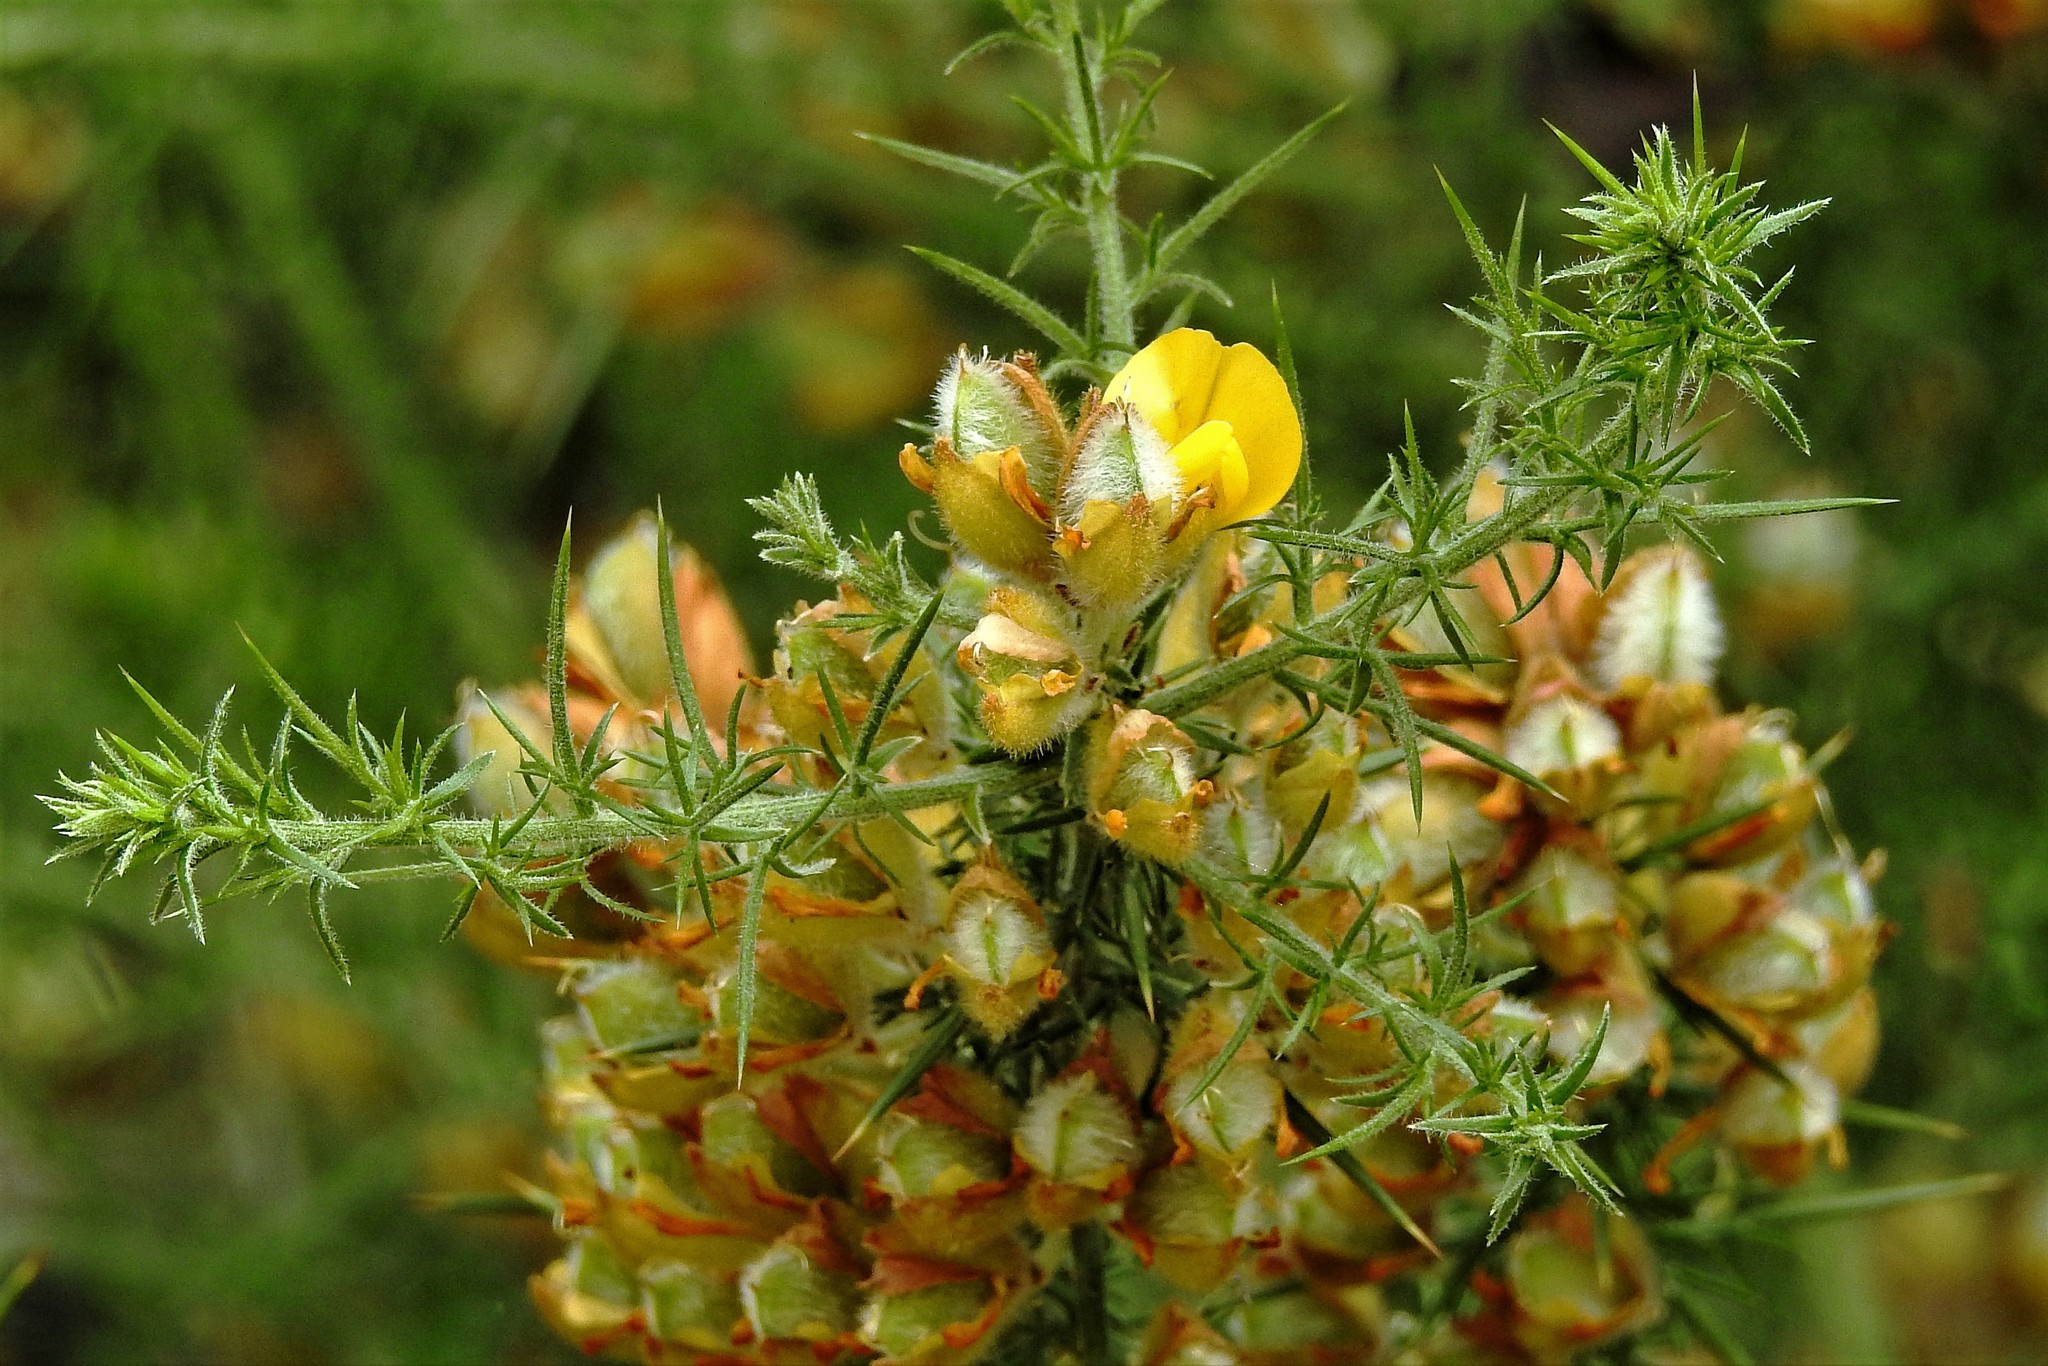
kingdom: Plantae
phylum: Tracheophyta
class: Magnoliopsida
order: Fabales
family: Fabaceae
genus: Ulex
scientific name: Ulex europaeus
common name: Common gorse
